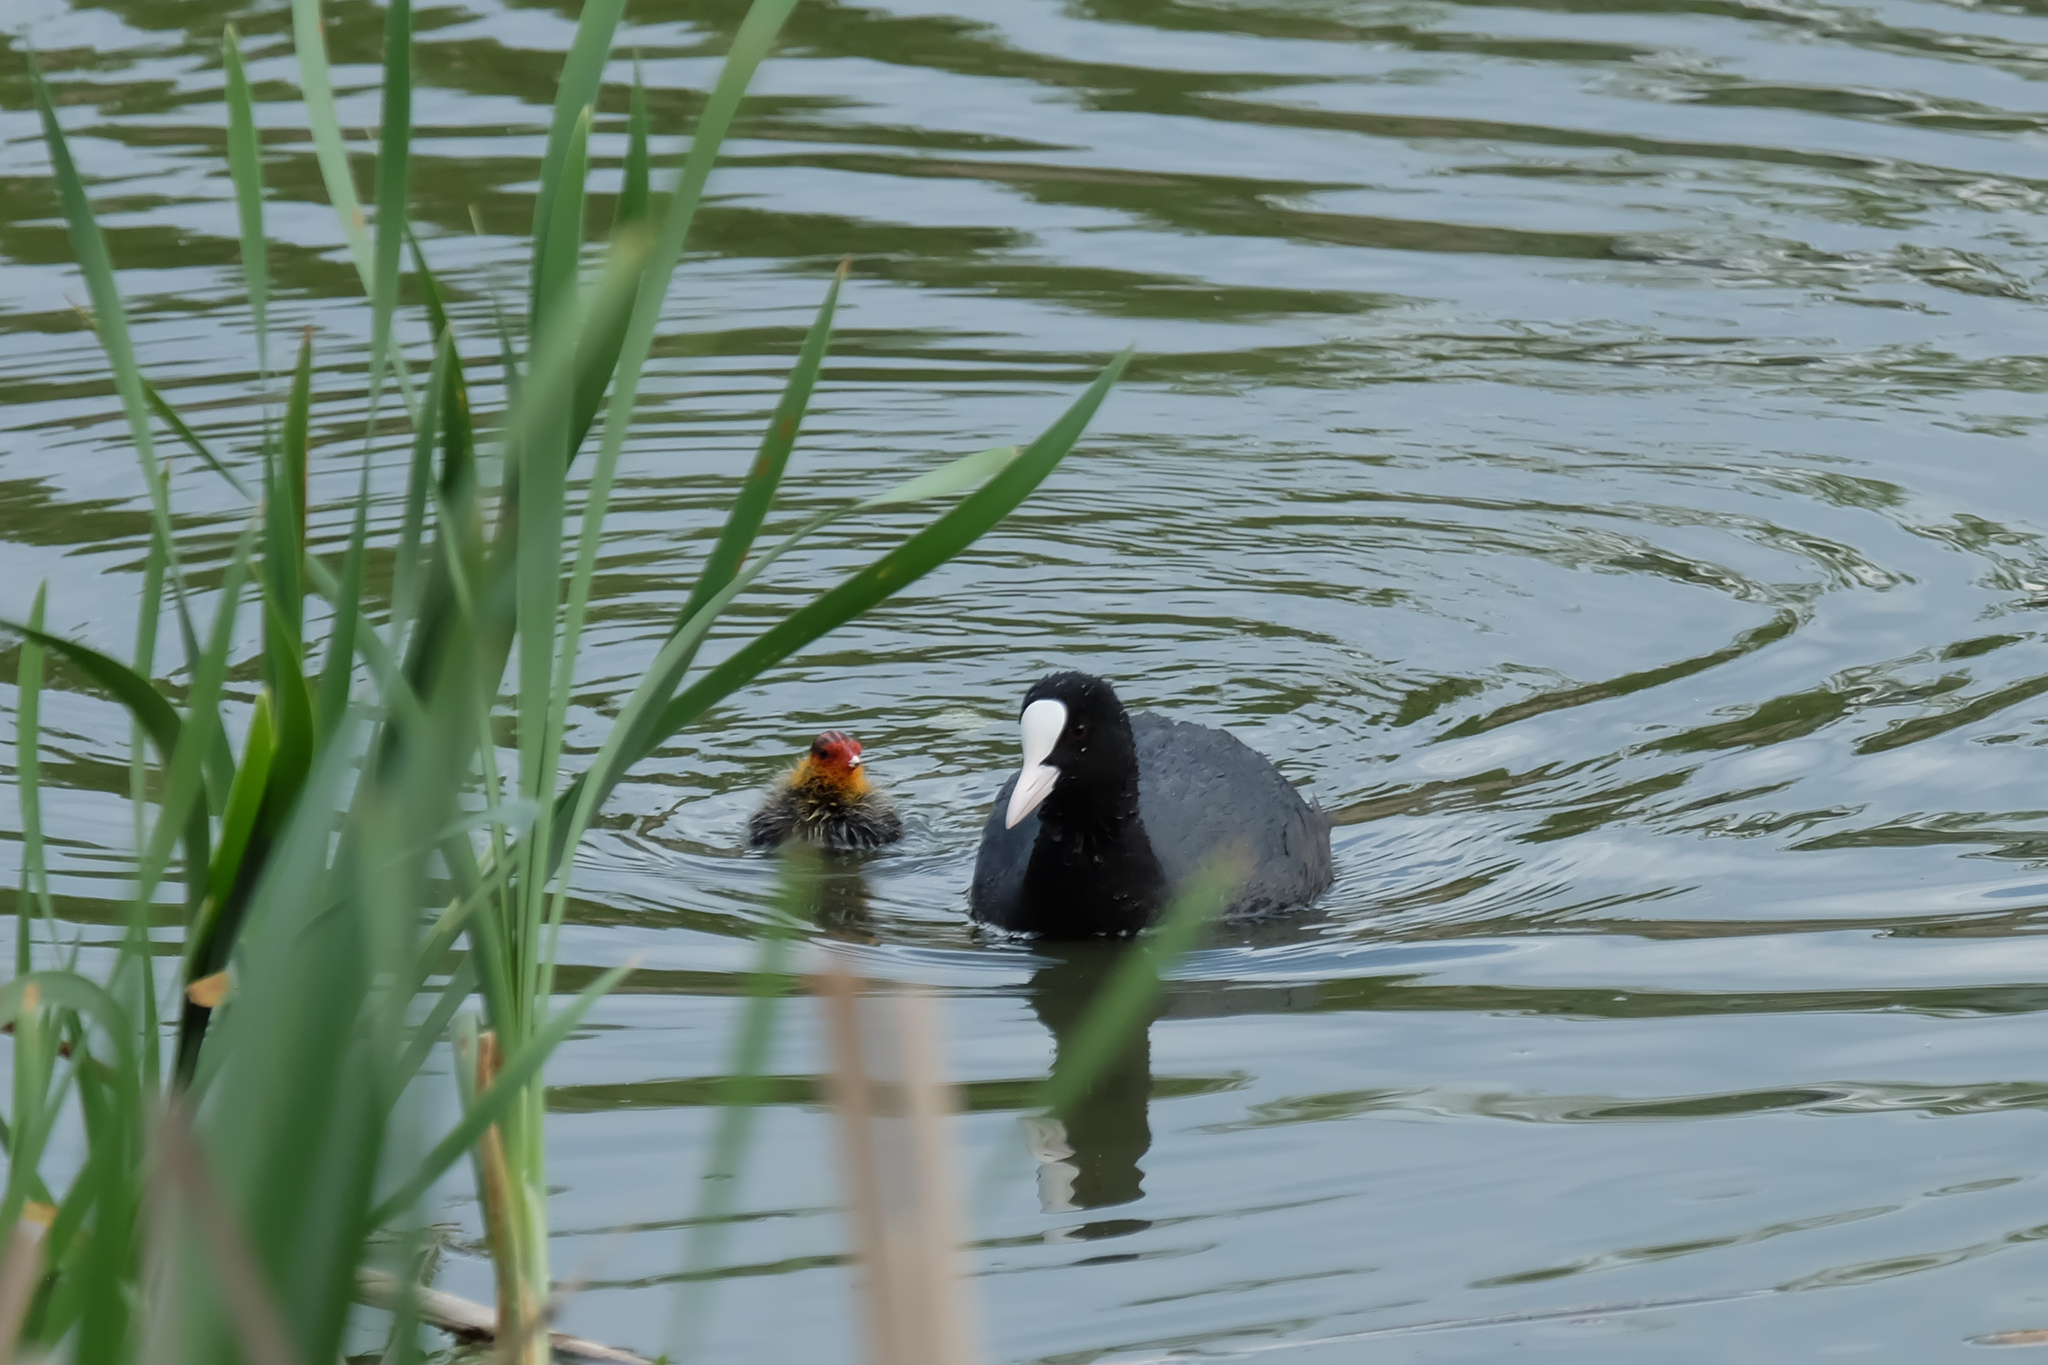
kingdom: Animalia
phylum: Chordata
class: Aves
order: Gruiformes
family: Rallidae
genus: Fulica
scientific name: Fulica atra
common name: Eurasian coot
